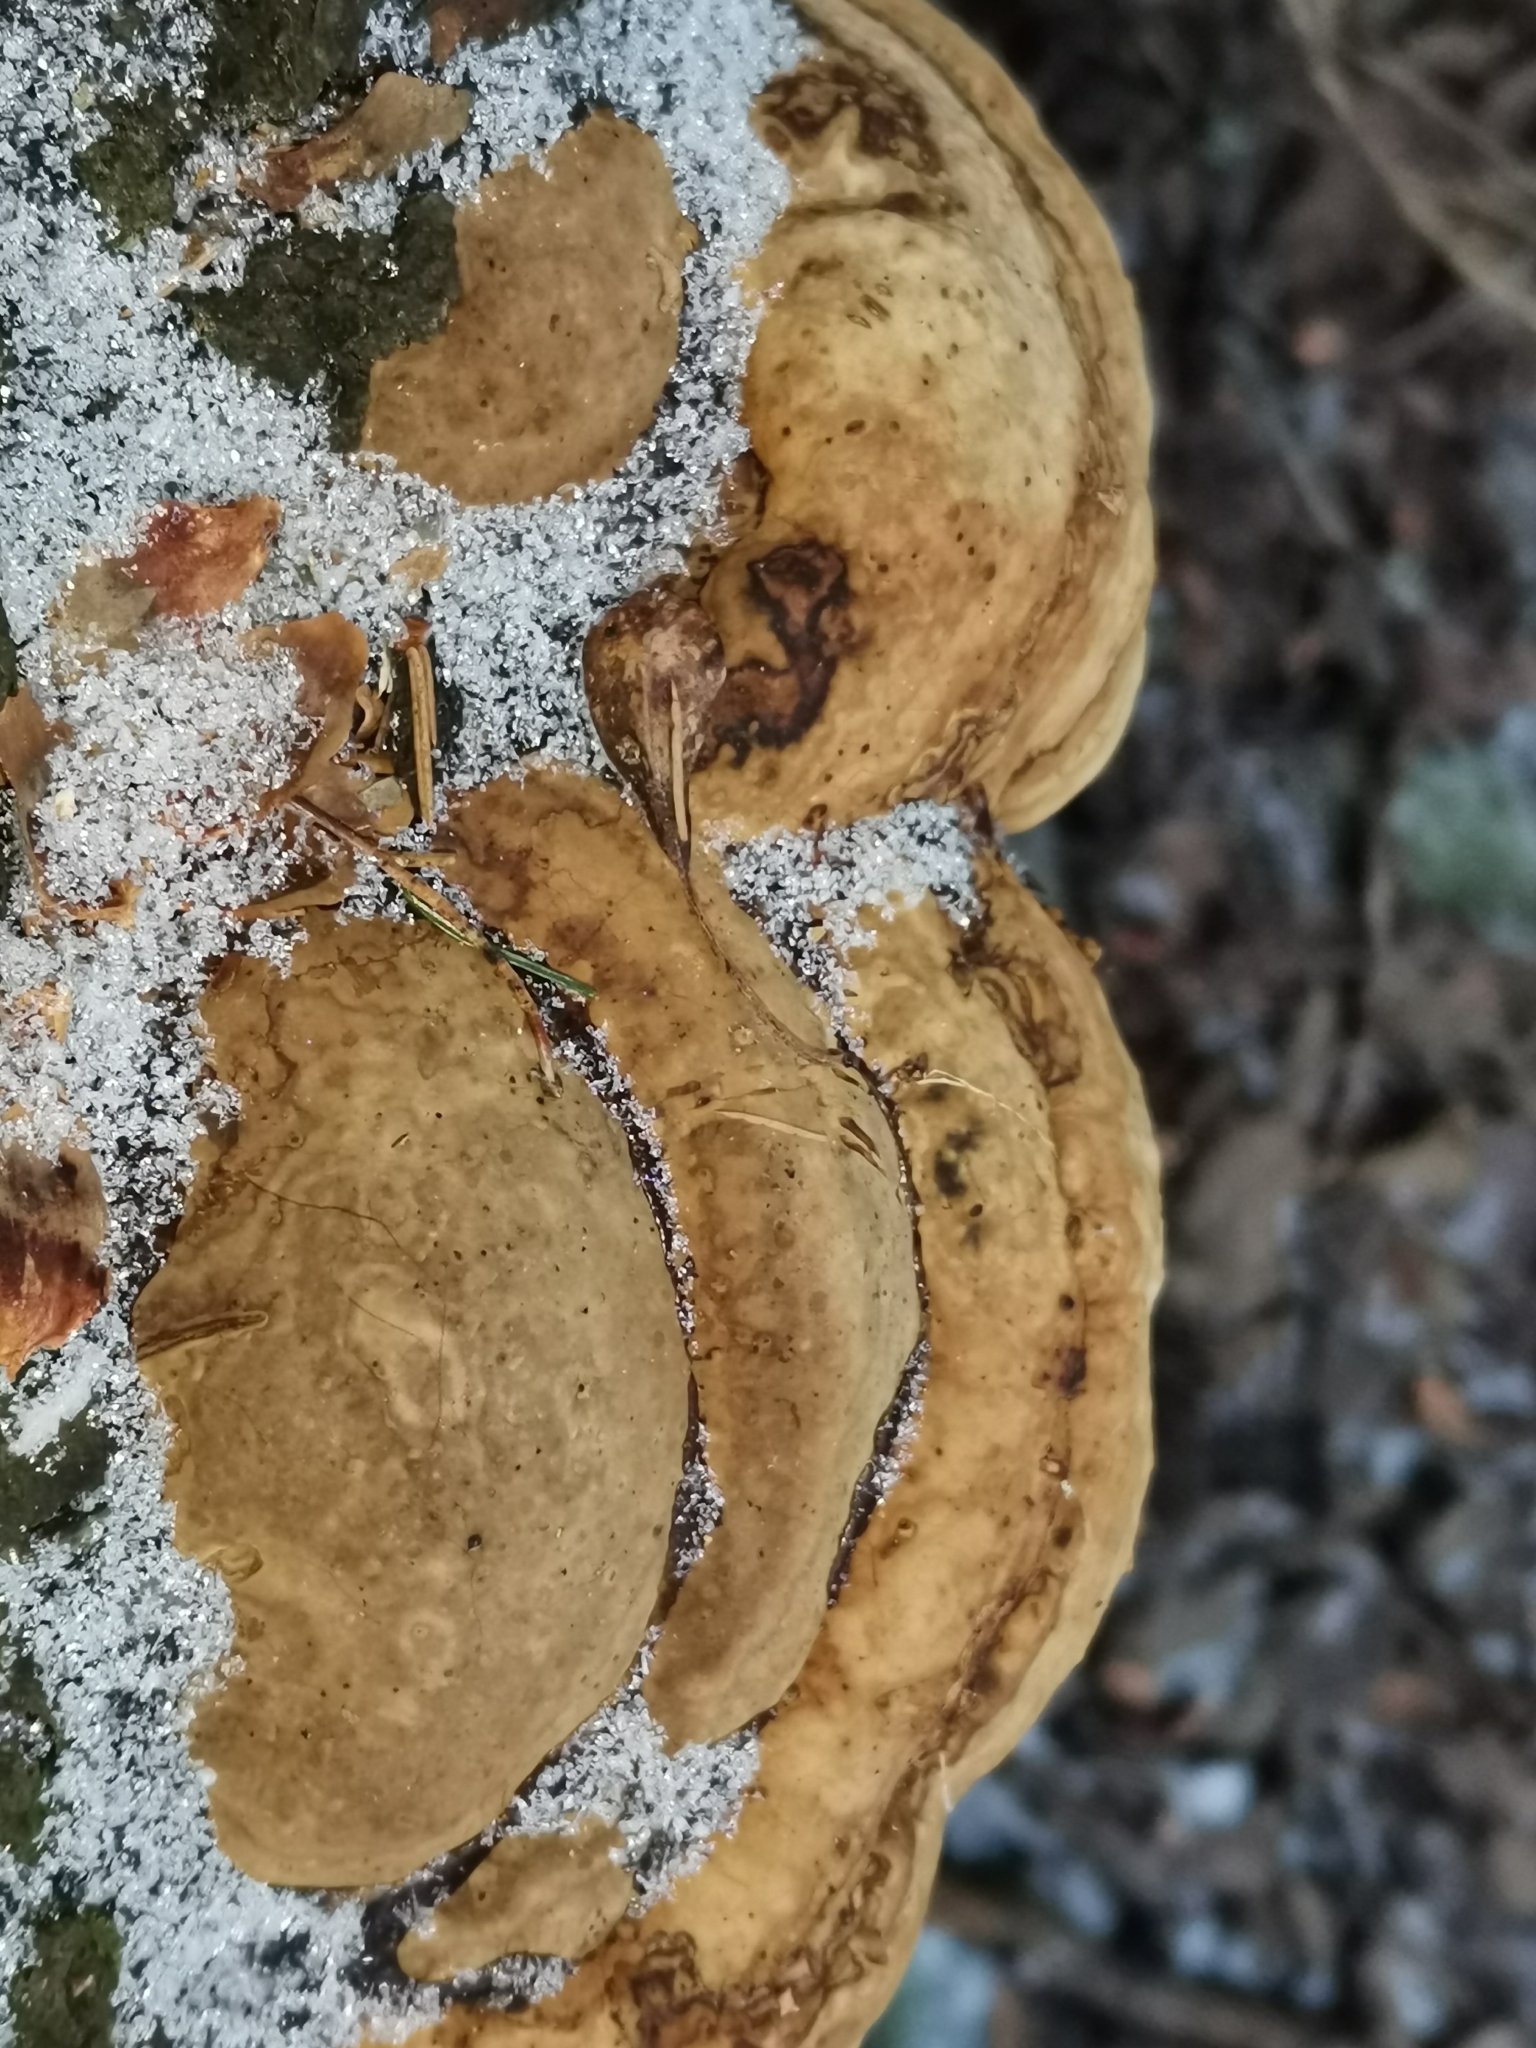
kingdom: Fungi
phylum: Basidiomycota
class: Agaricomycetes
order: Polyporales
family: Polyporaceae
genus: Fomes
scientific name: Fomes fomentarius
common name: Hoof fungus
